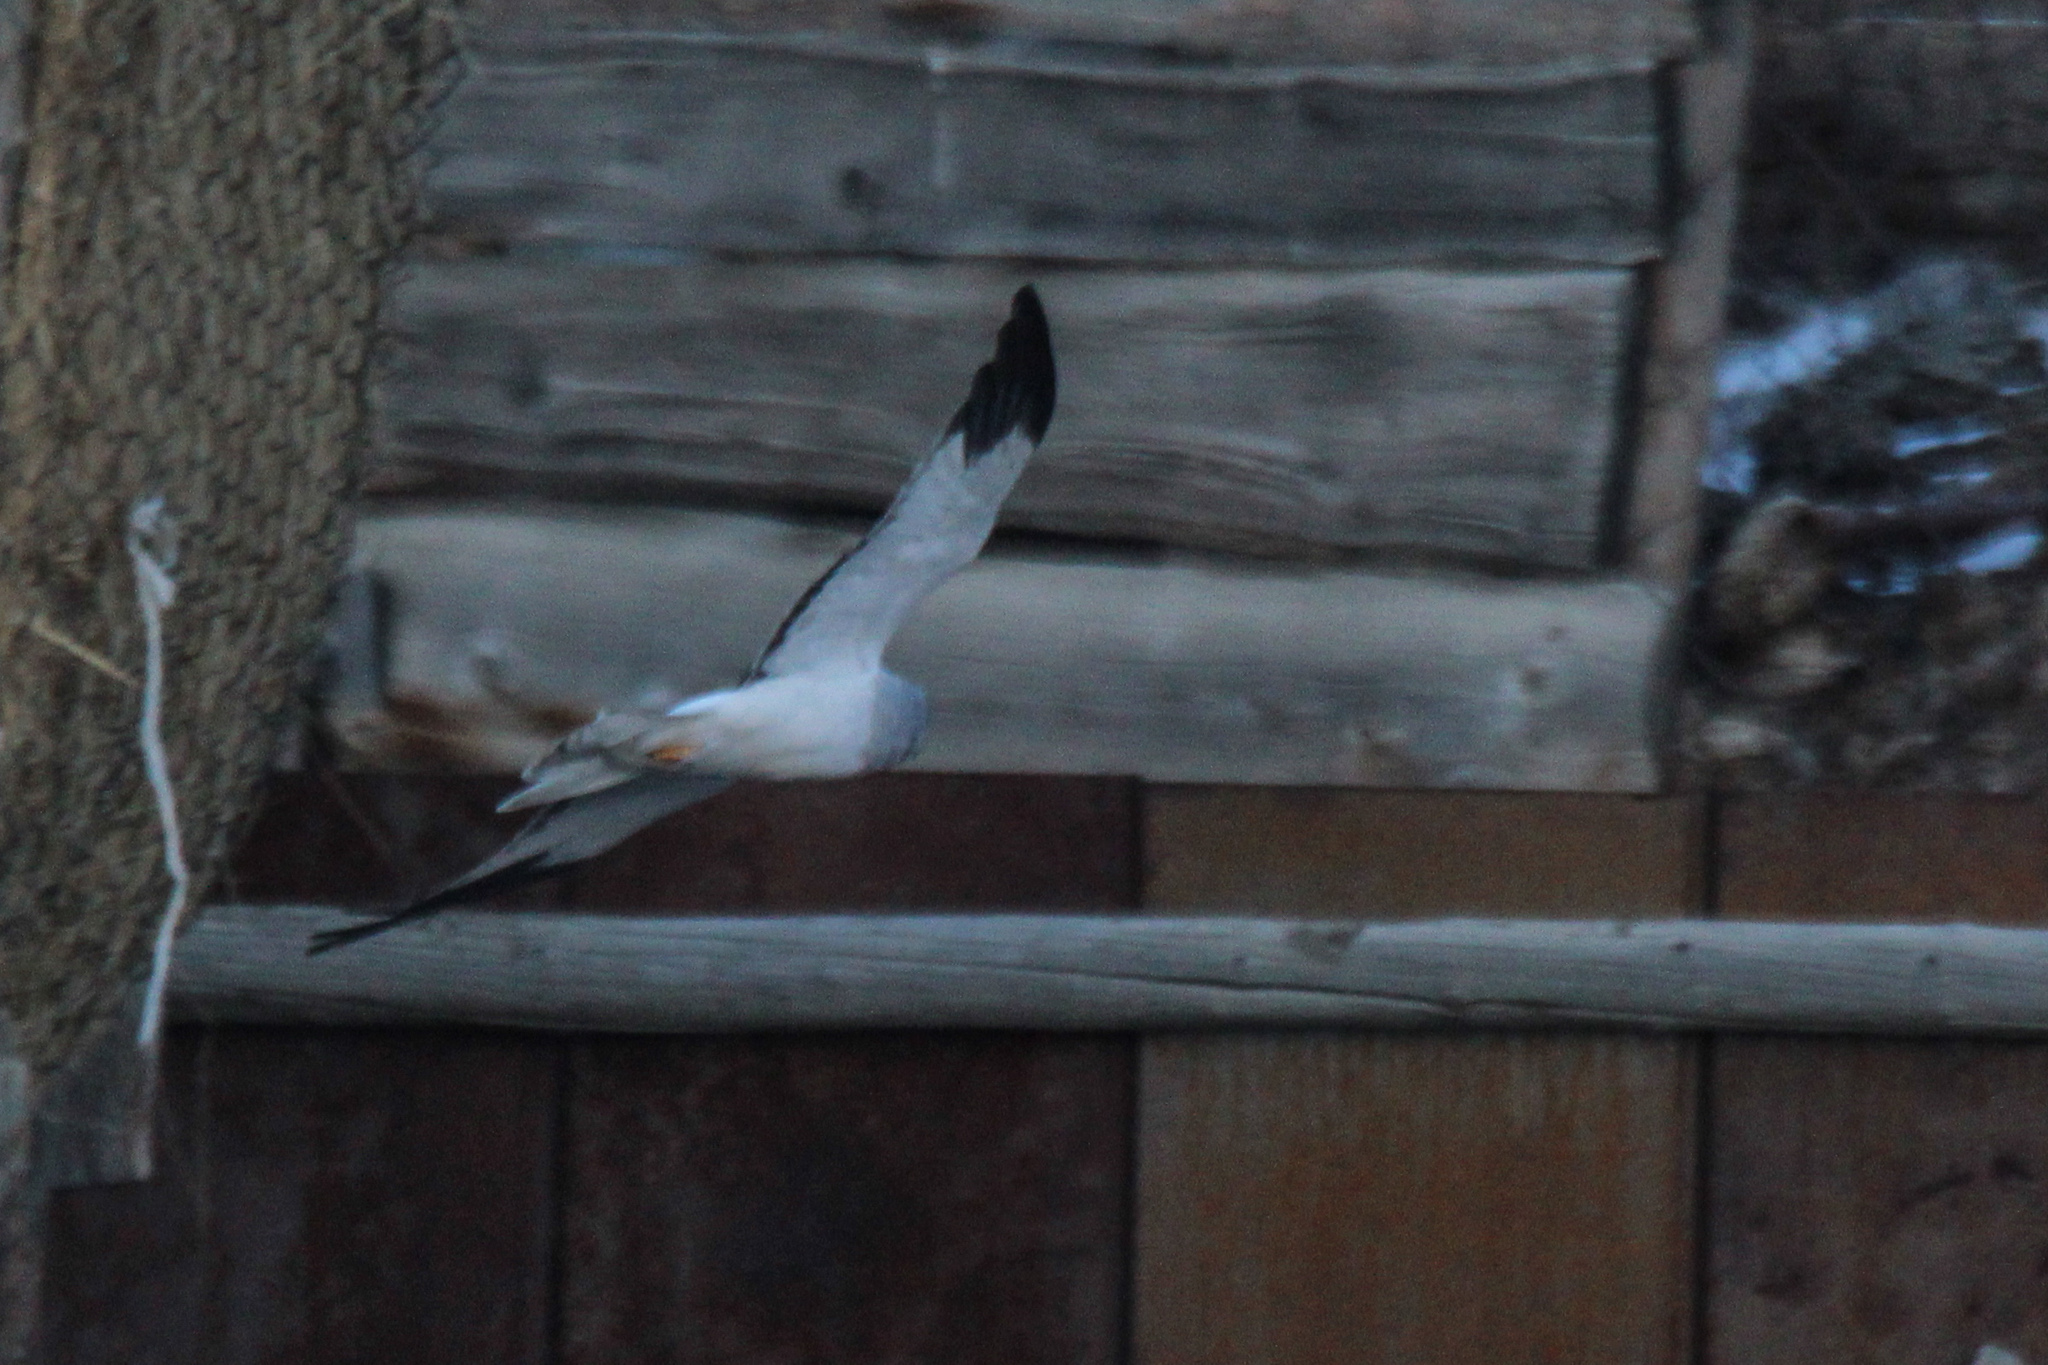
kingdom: Animalia
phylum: Chordata
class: Aves
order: Accipitriformes
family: Accipitridae
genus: Circus
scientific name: Circus cyaneus
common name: Hen harrier
